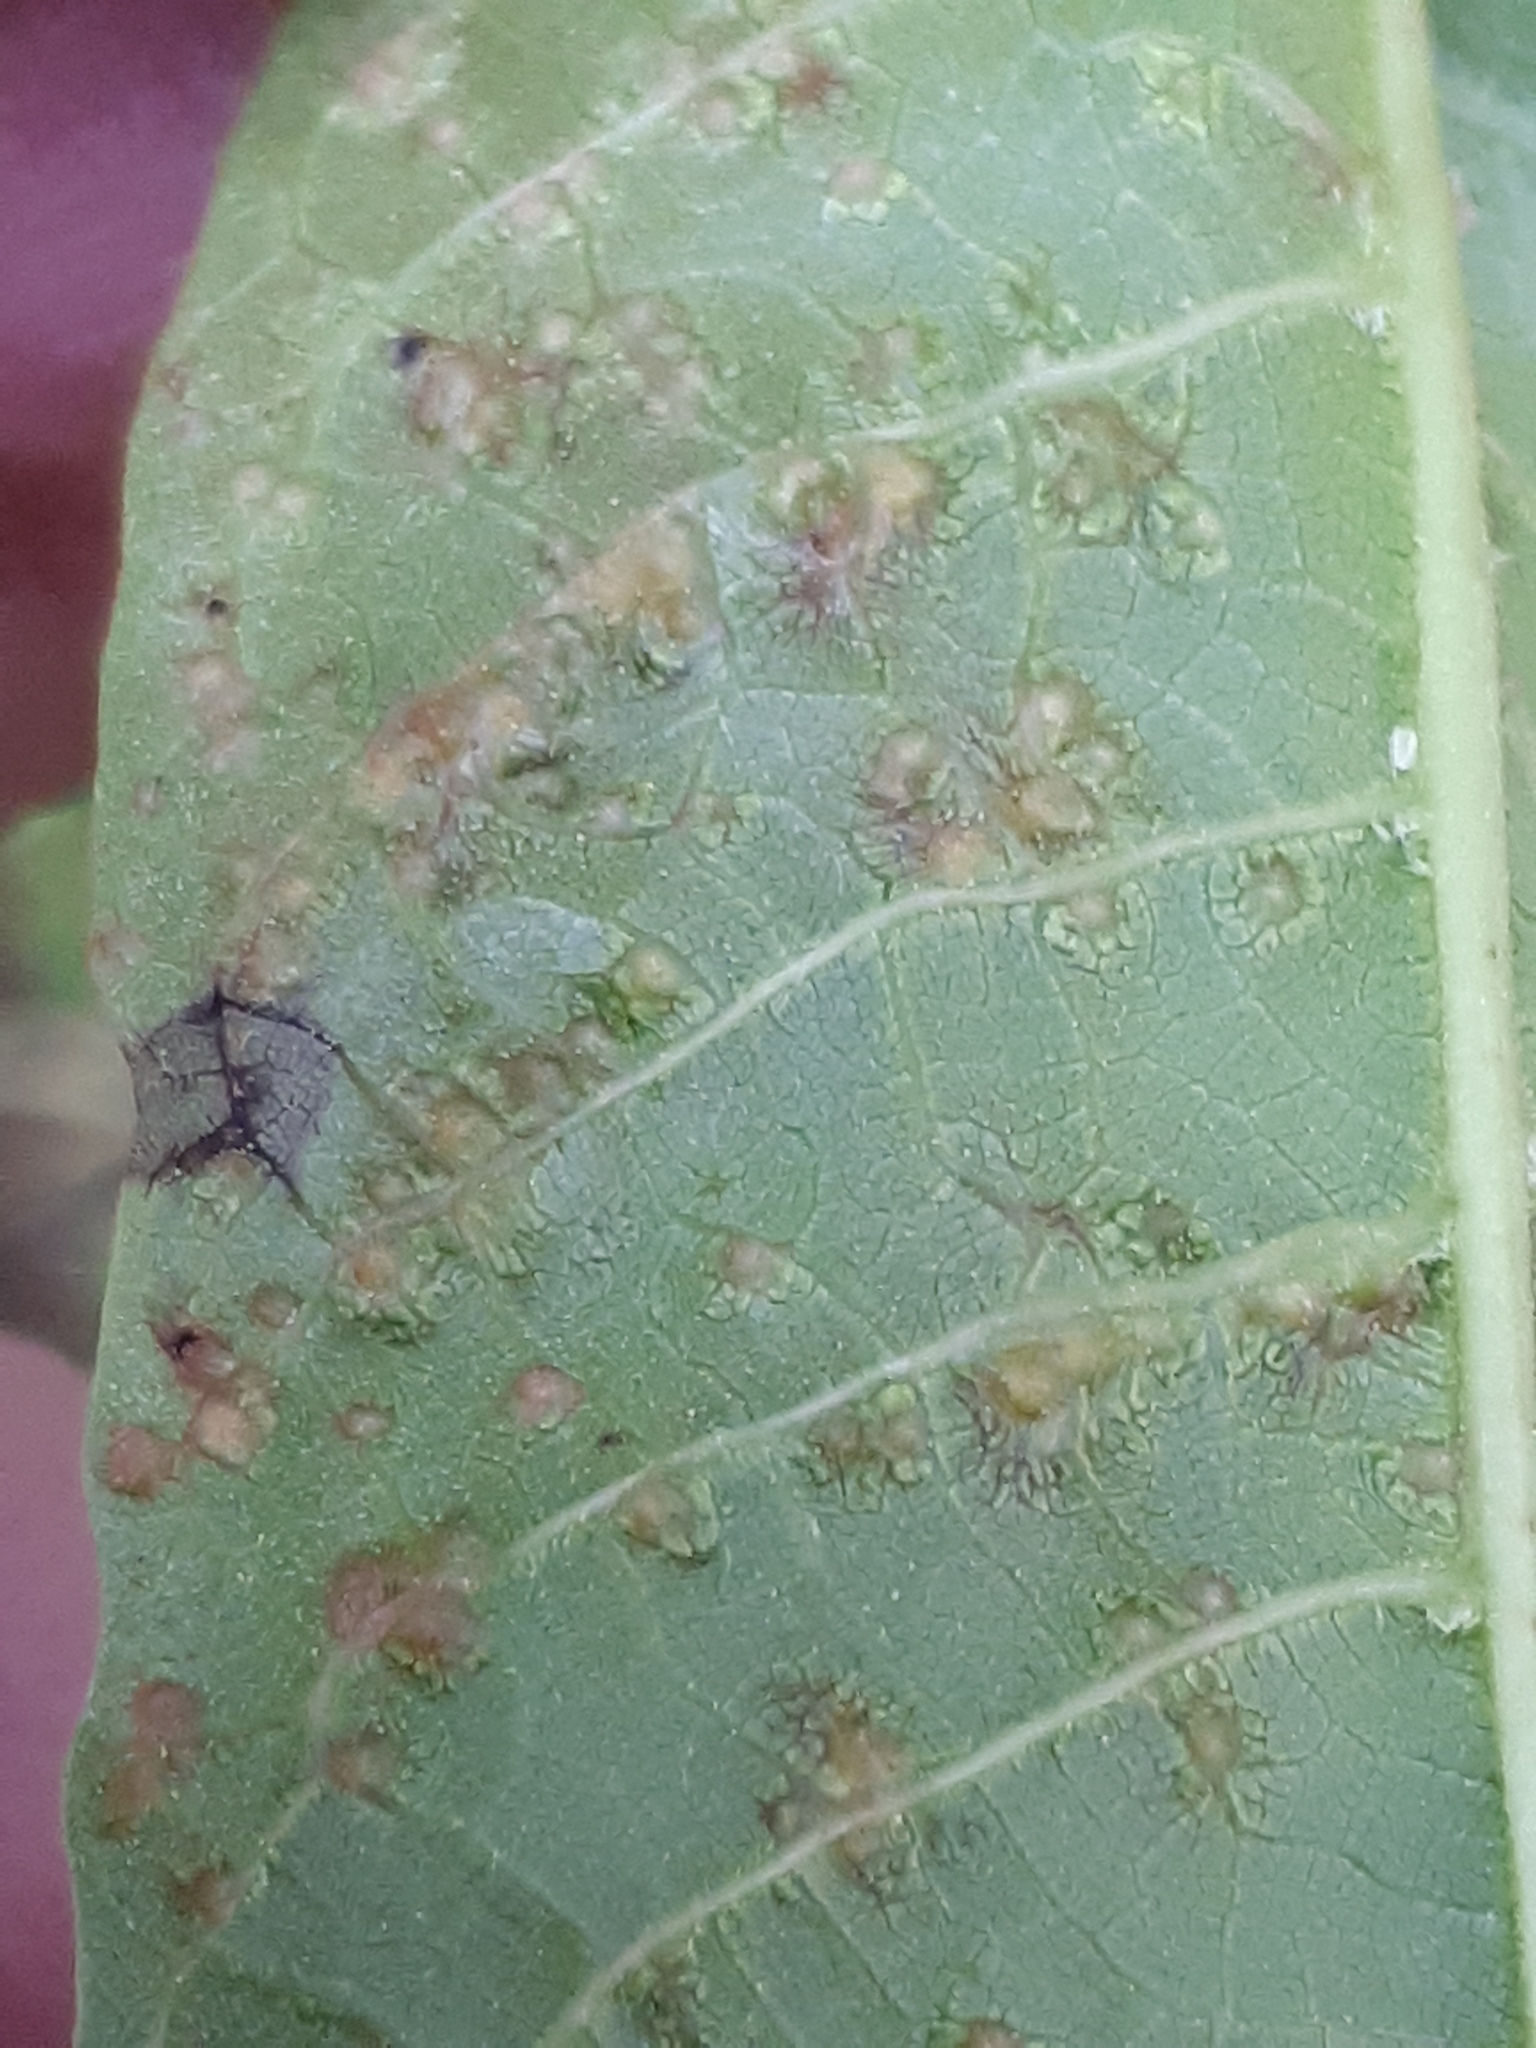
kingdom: Animalia
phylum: Arthropoda
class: Arachnida
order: Trombidiformes
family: Eriophyidae
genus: Aceria
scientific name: Aceria tristriata
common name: Persian walnut leaf blister mite
